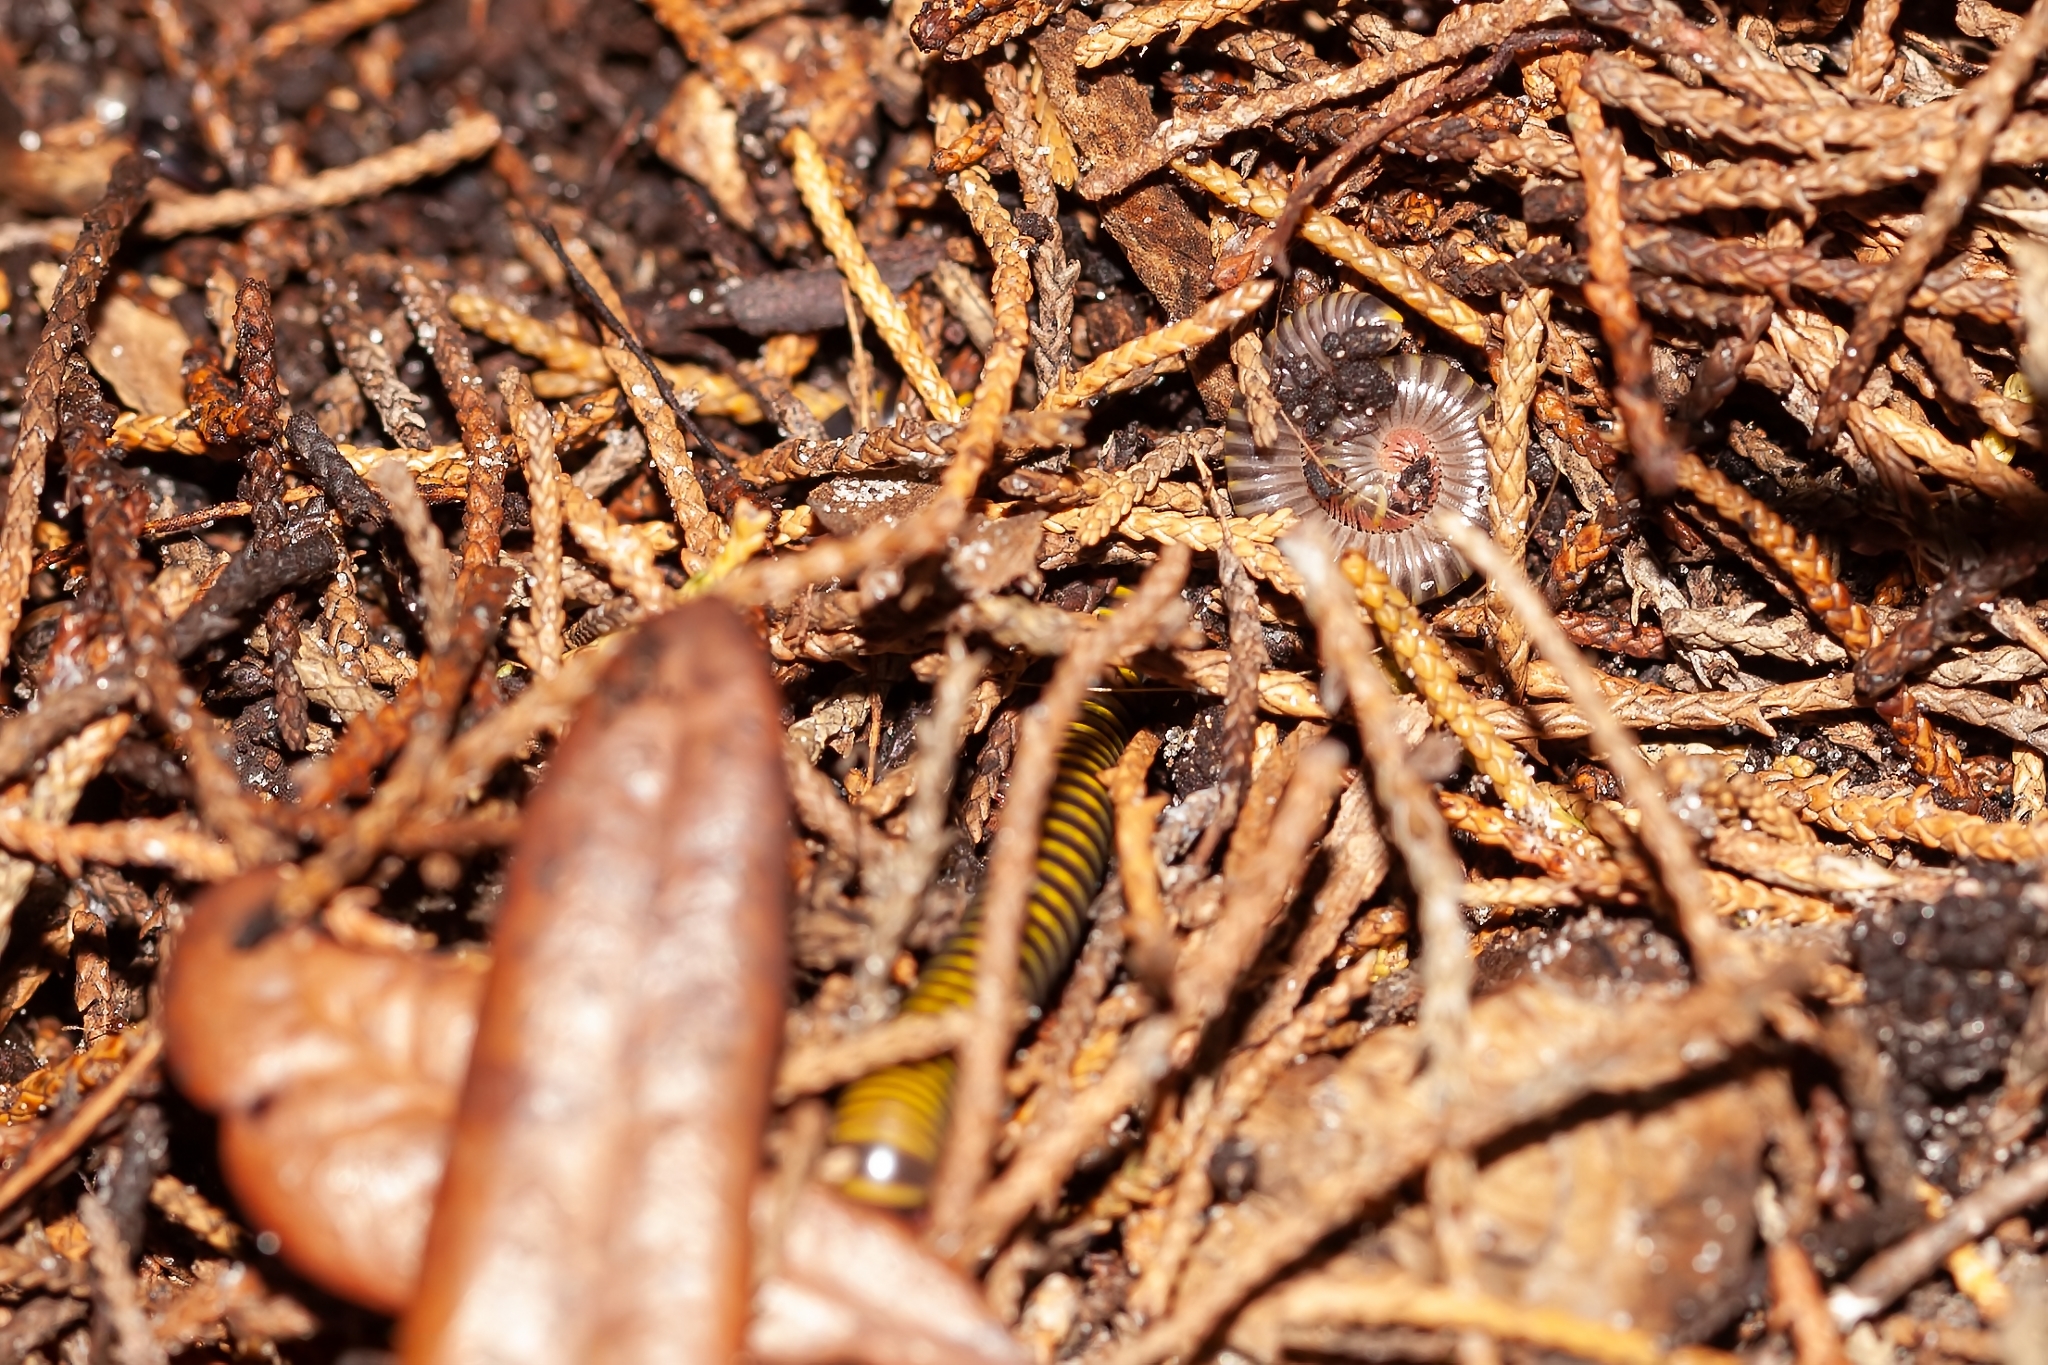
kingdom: Animalia
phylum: Arthropoda
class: Diplopoda
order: Spirobolida
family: Rhinocricidae
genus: Anadenobolus
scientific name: Anadenobolus monilicornis
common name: Caribbean millipede
